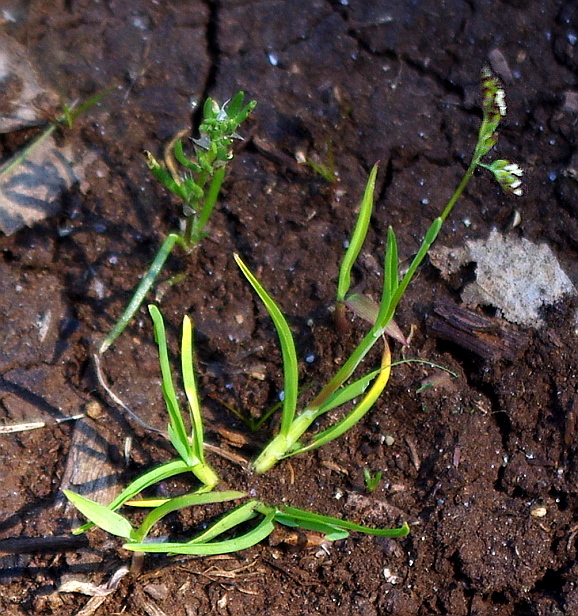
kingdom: Plantae
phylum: Tracheophyta
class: Liliopsida
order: Poales
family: Poaceae
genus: Poa
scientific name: Poa annua
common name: Annual bluegrass
